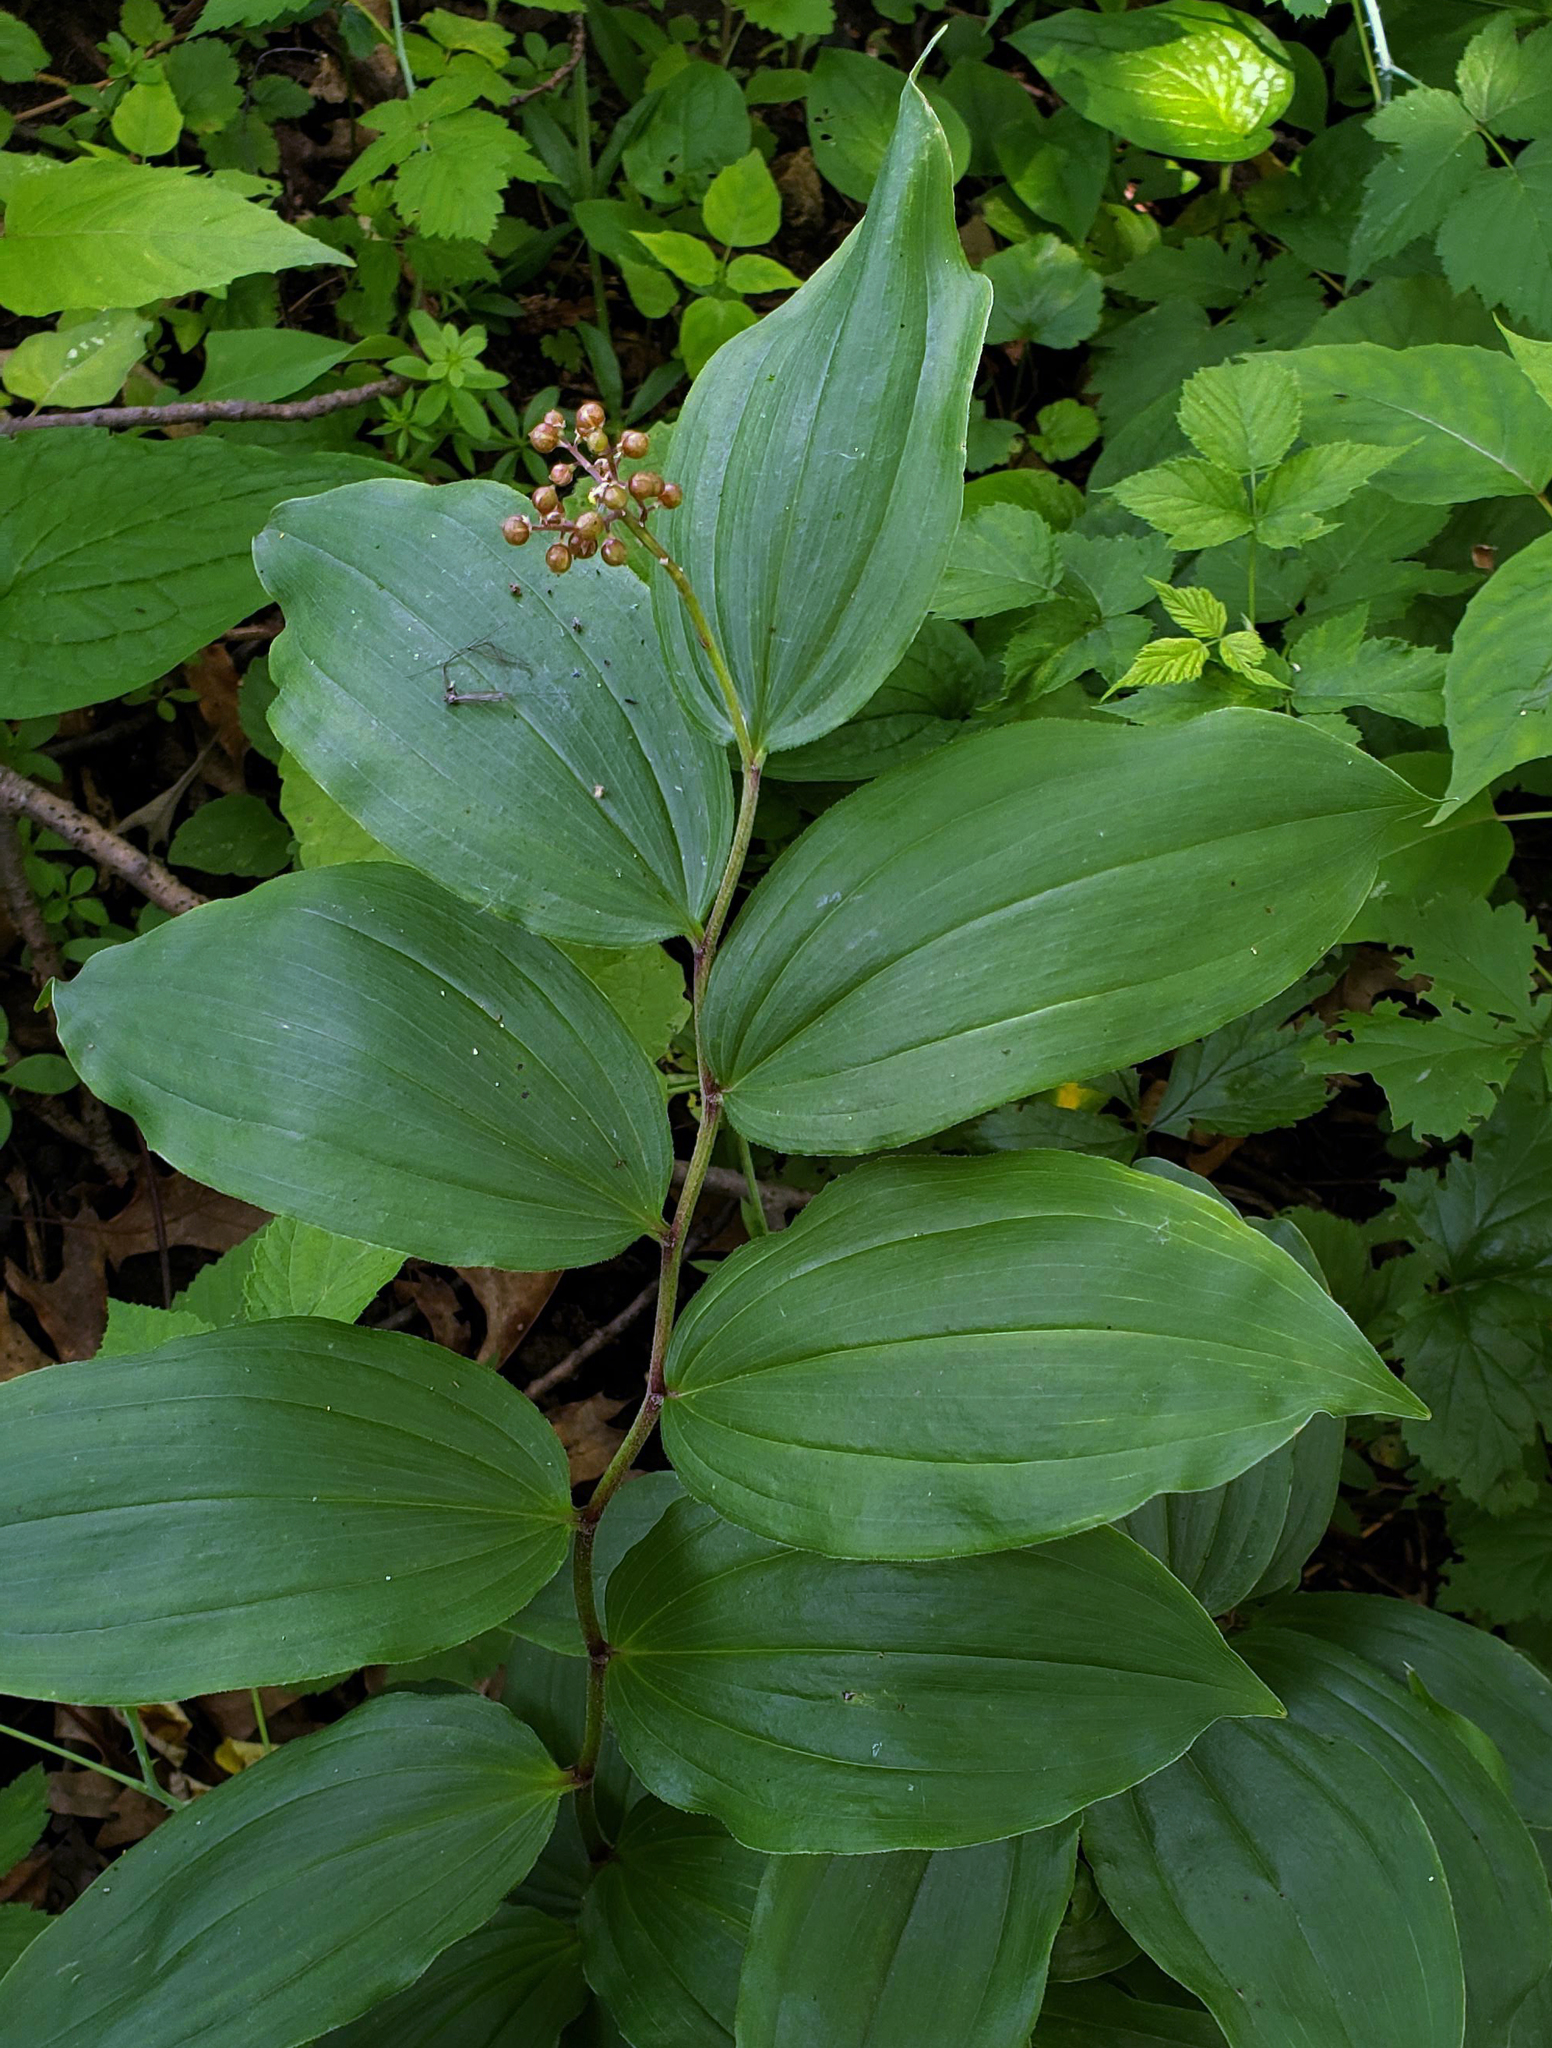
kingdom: Plantae
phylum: Tracheophyta
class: Liliopsida
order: Asparagales
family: Asparagaceae
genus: Maianthemum
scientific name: Maianthemum racemosum
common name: False spikenard
